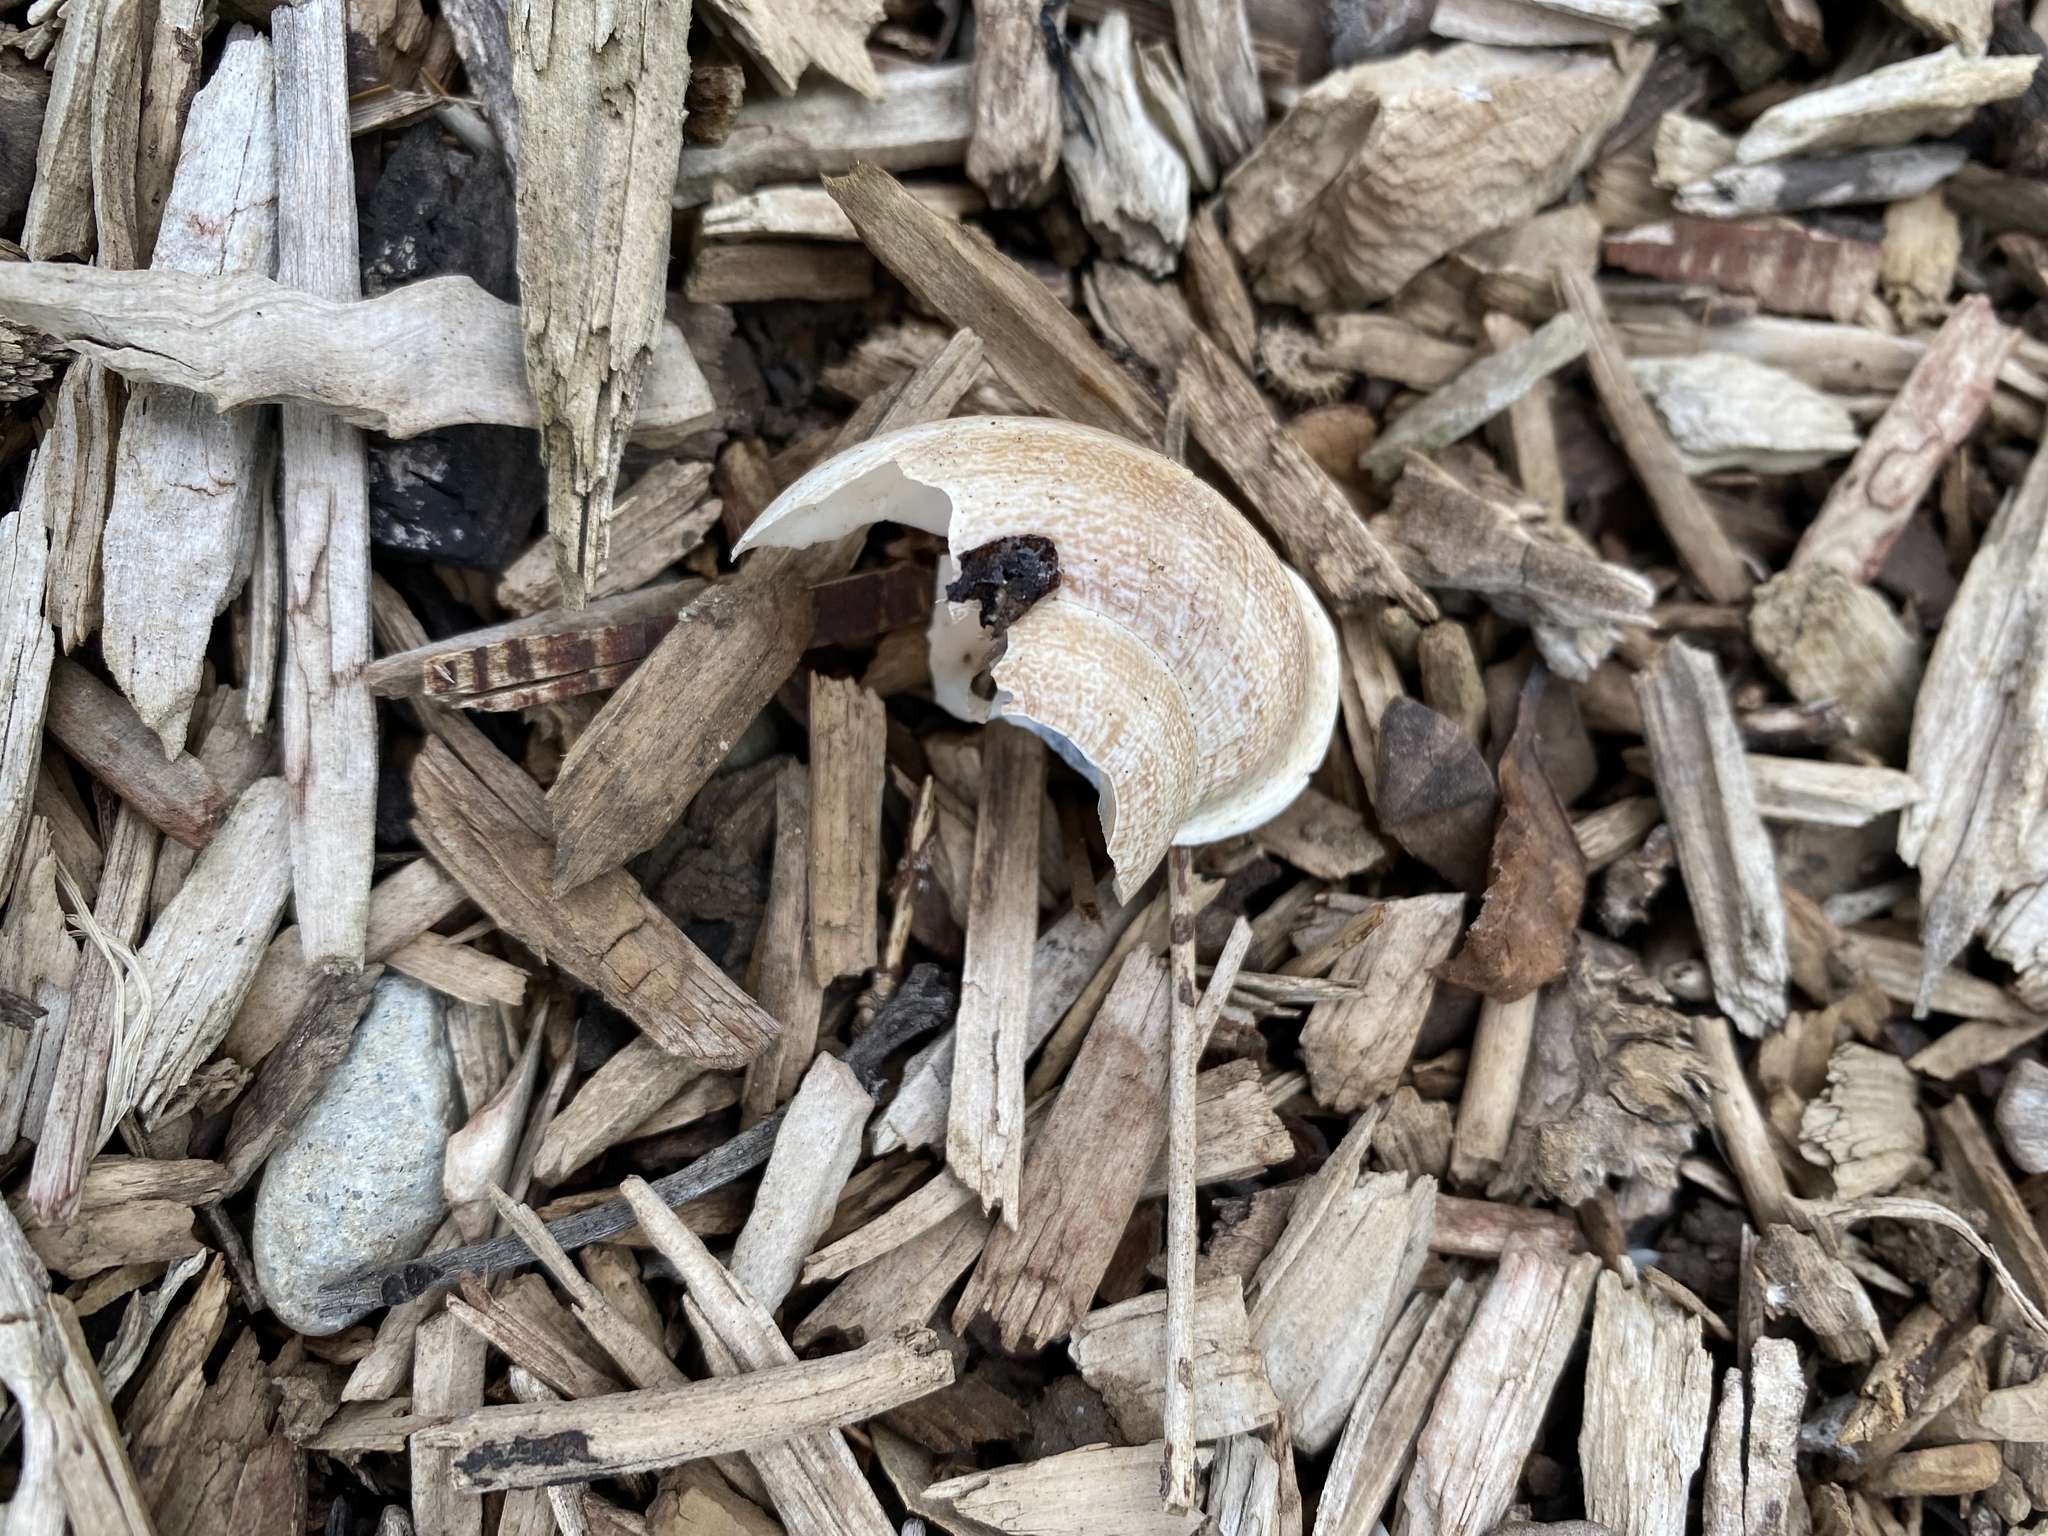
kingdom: Animalia
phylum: Mollusca
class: Gastropoda
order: Stylommatophora
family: Helicidae
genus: Cornu
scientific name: Cornu aspersum
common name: Brown garden snail
